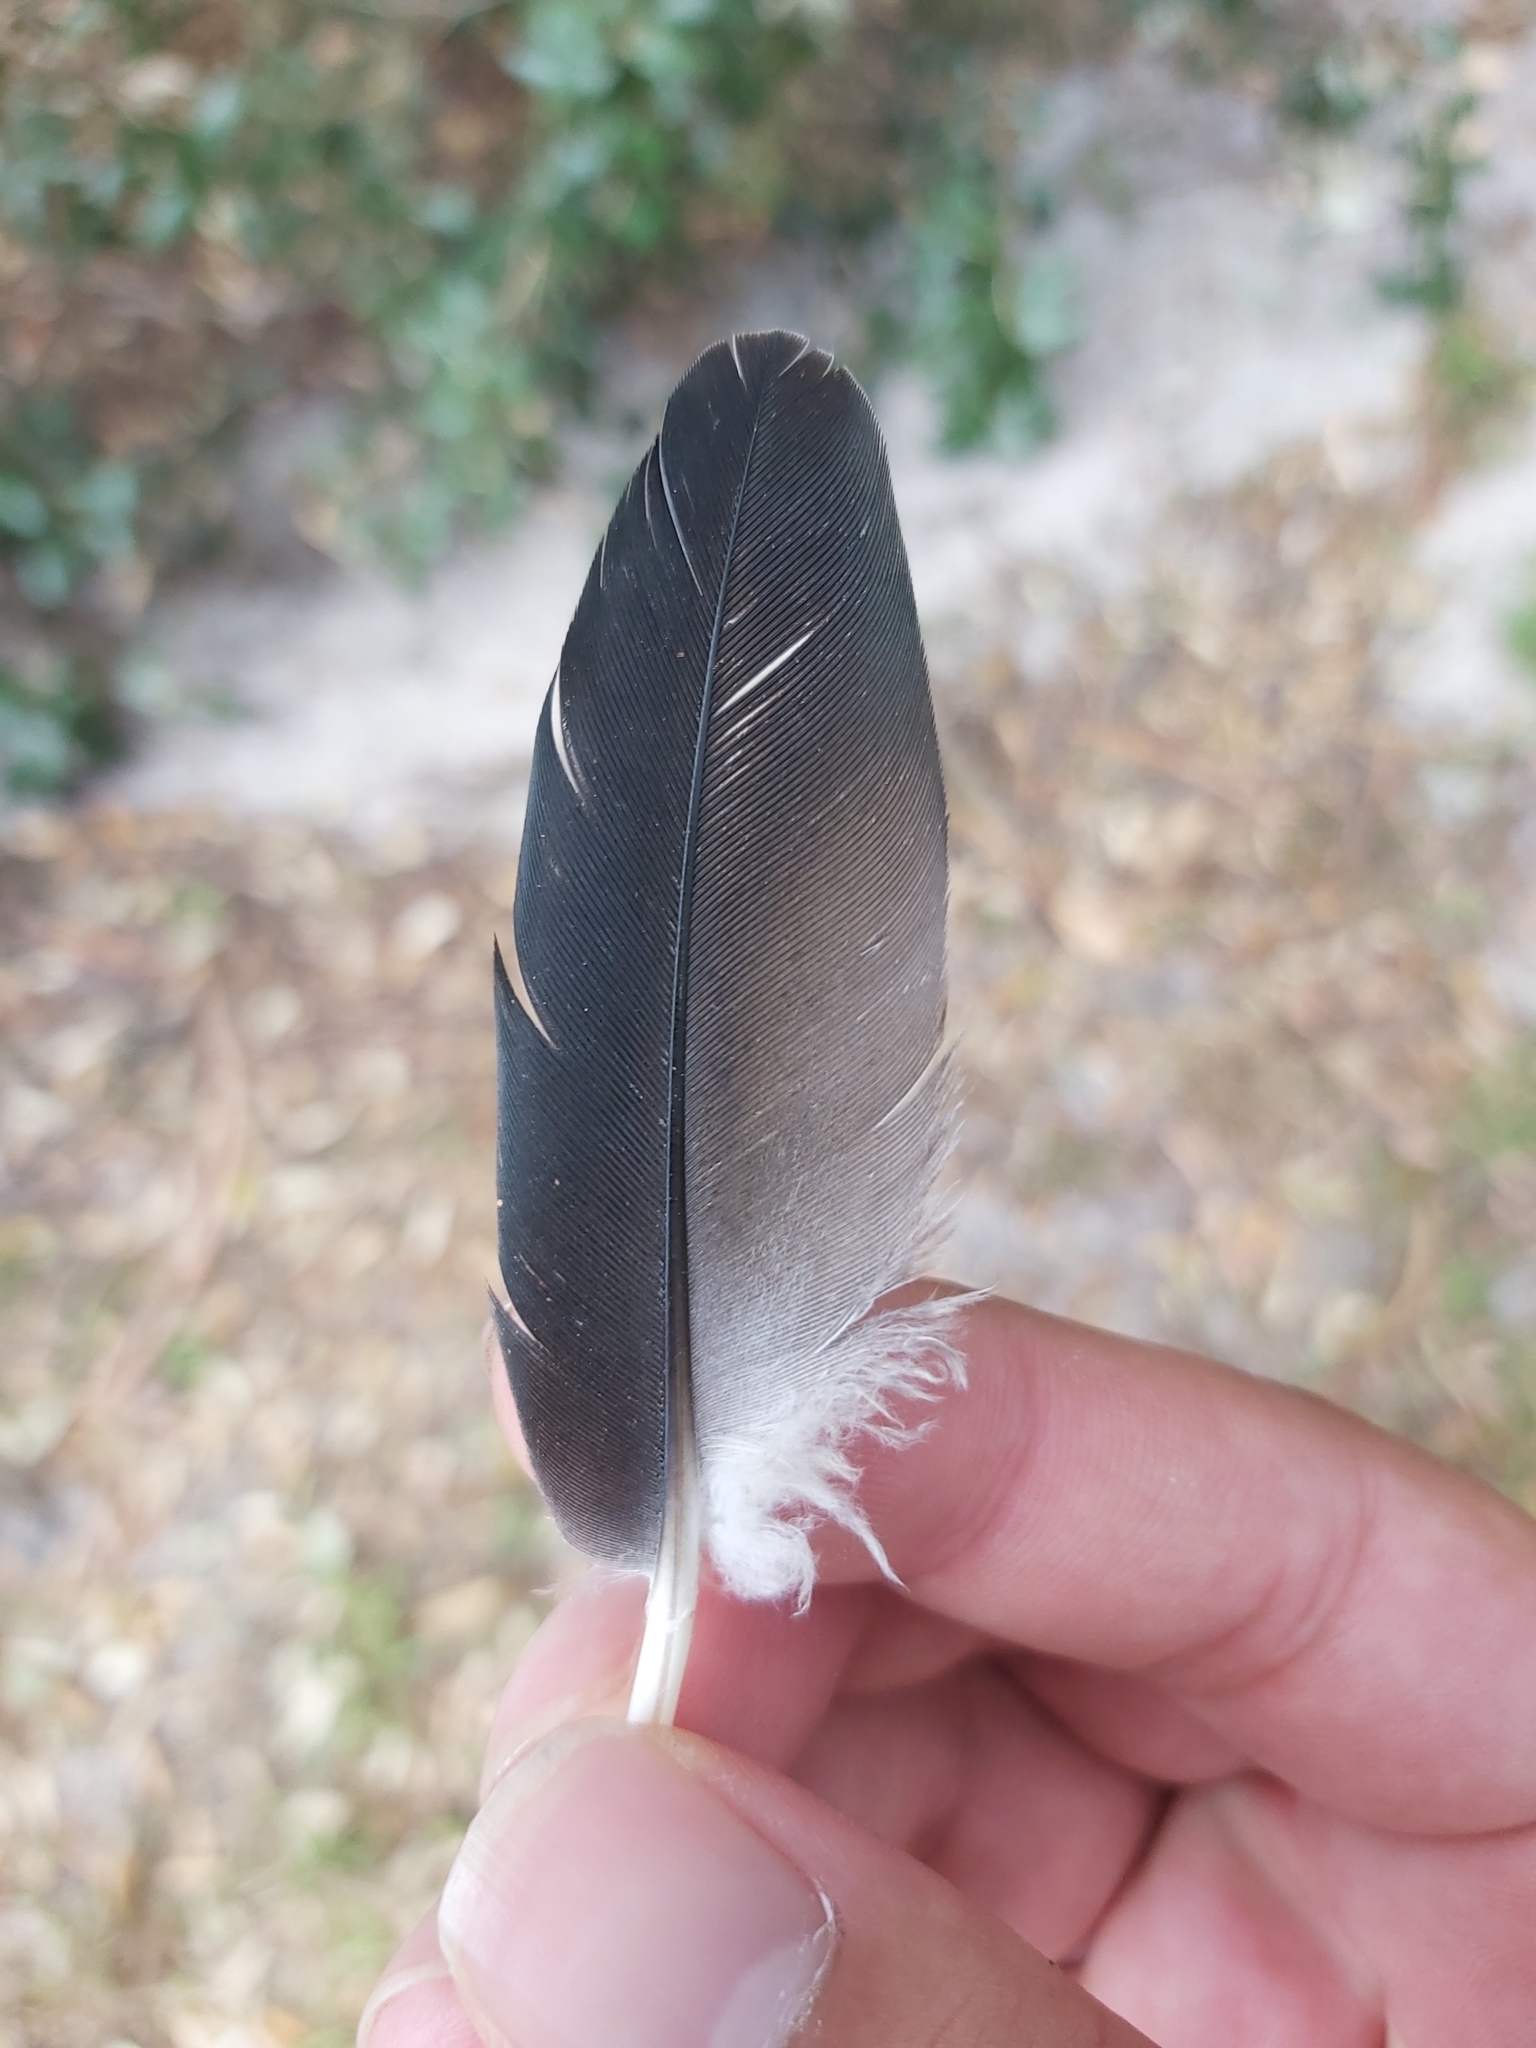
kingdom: Animalia
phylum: Chordata
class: Aves
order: Columbiformes
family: Columbidae
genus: Lopholaimus
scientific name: Lopholaimus antarcticus
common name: Topknot pigeon
